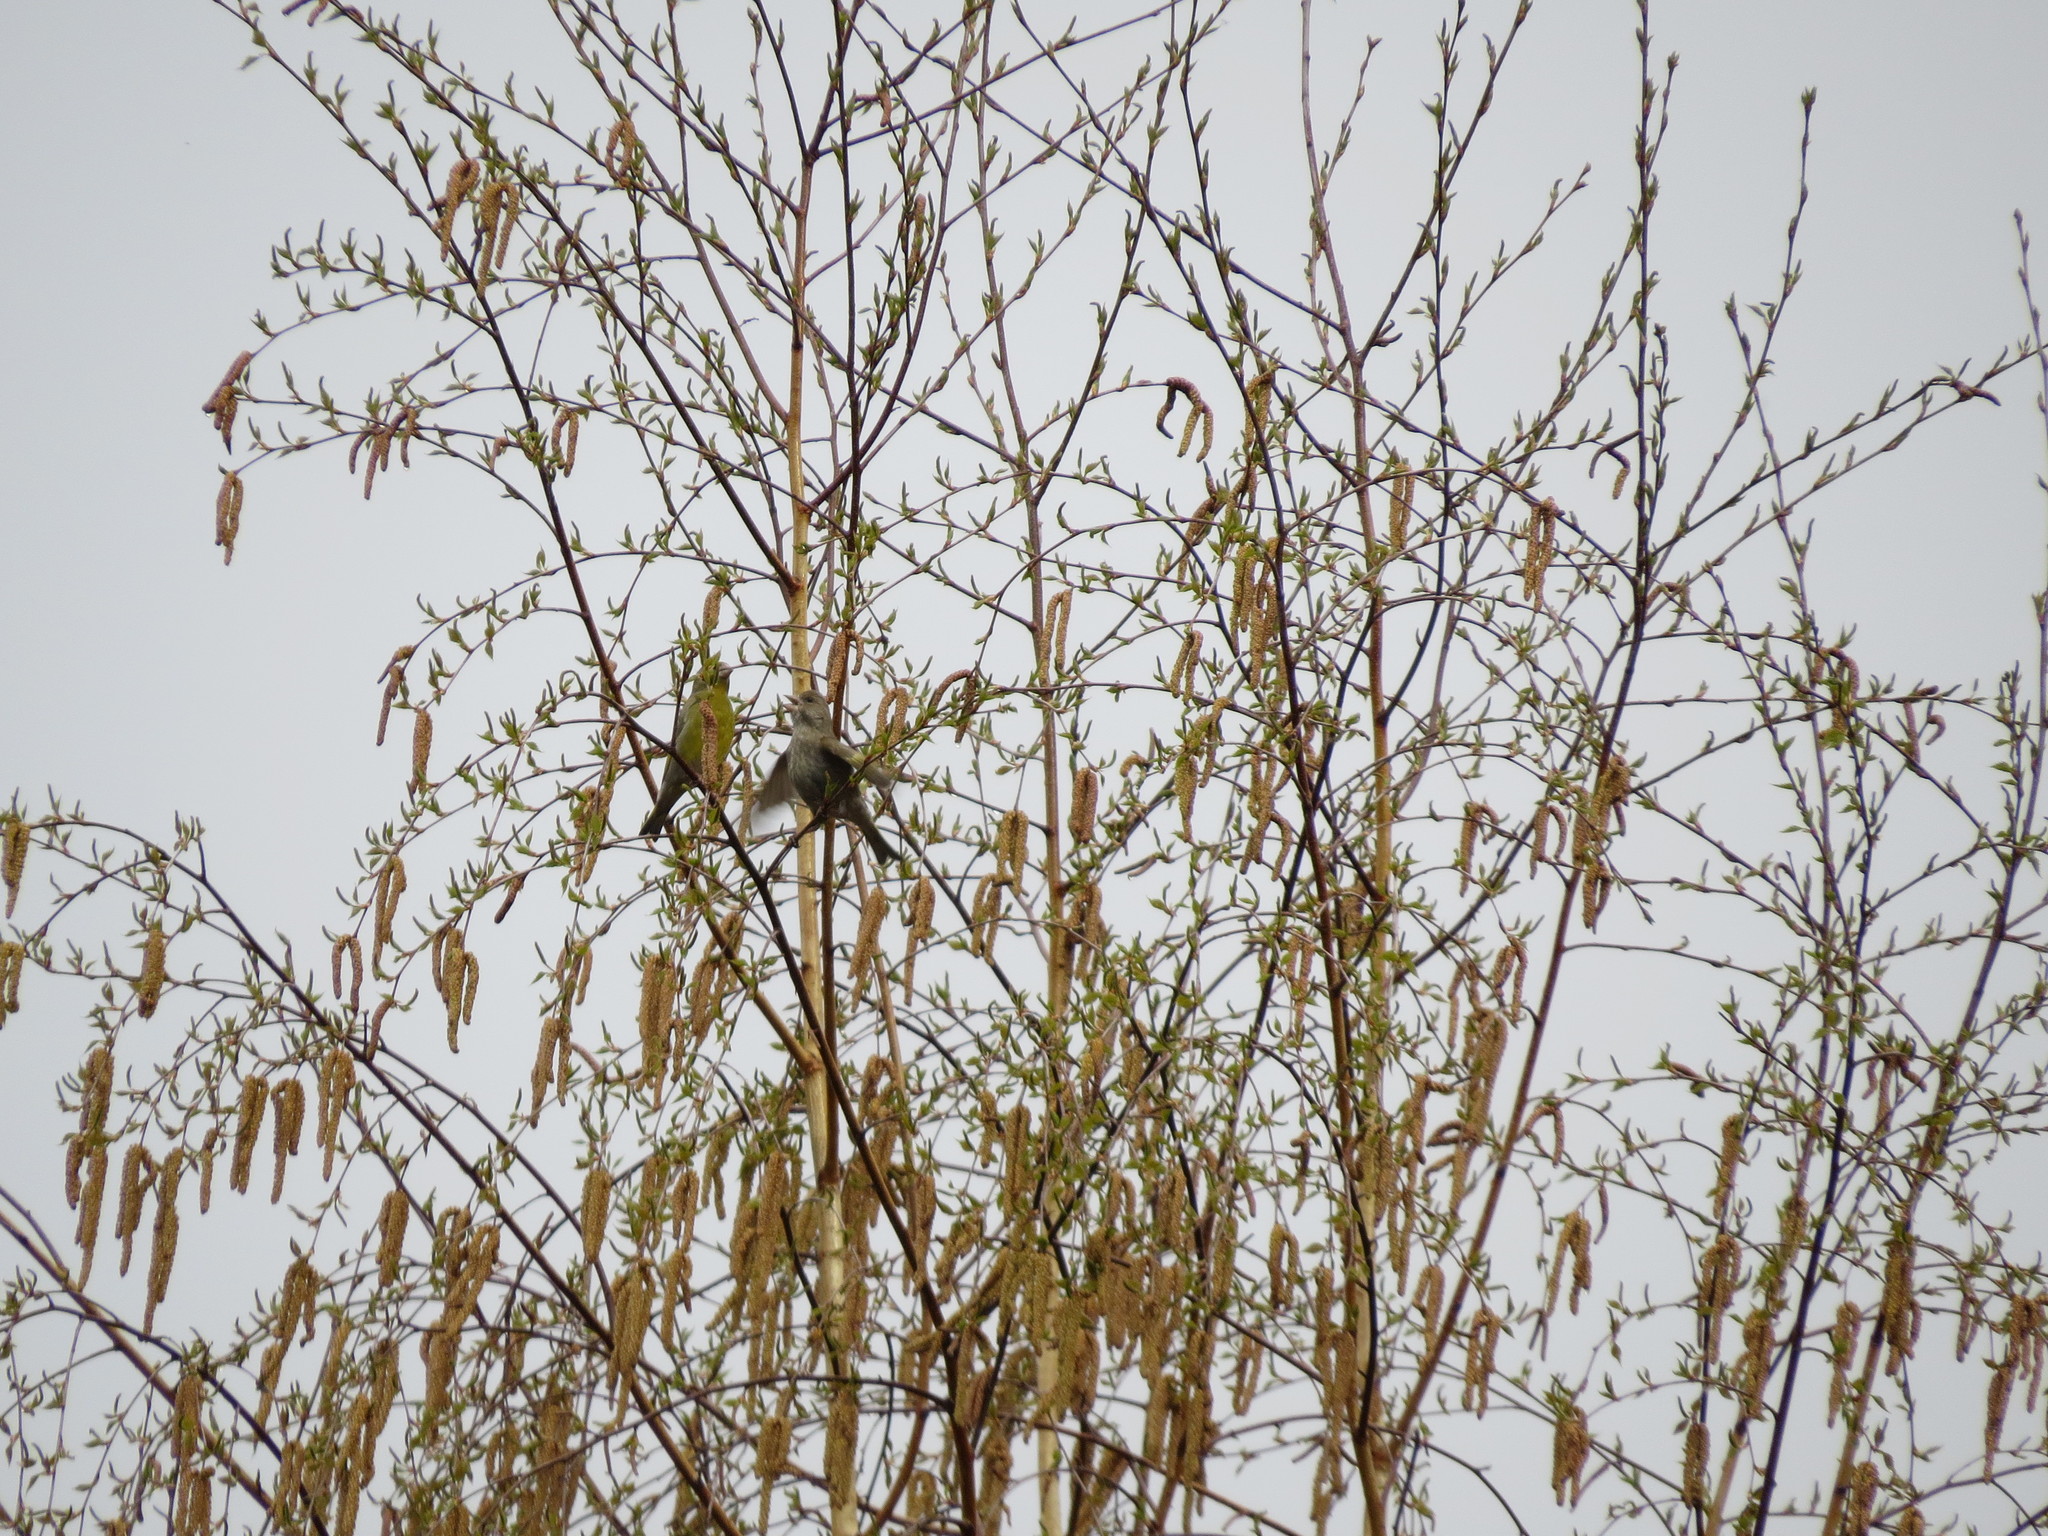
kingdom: Plantae
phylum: Tracheophyta
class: Liliopsida
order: Poales
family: Poaceae
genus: Chloris
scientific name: Chloris chloris
